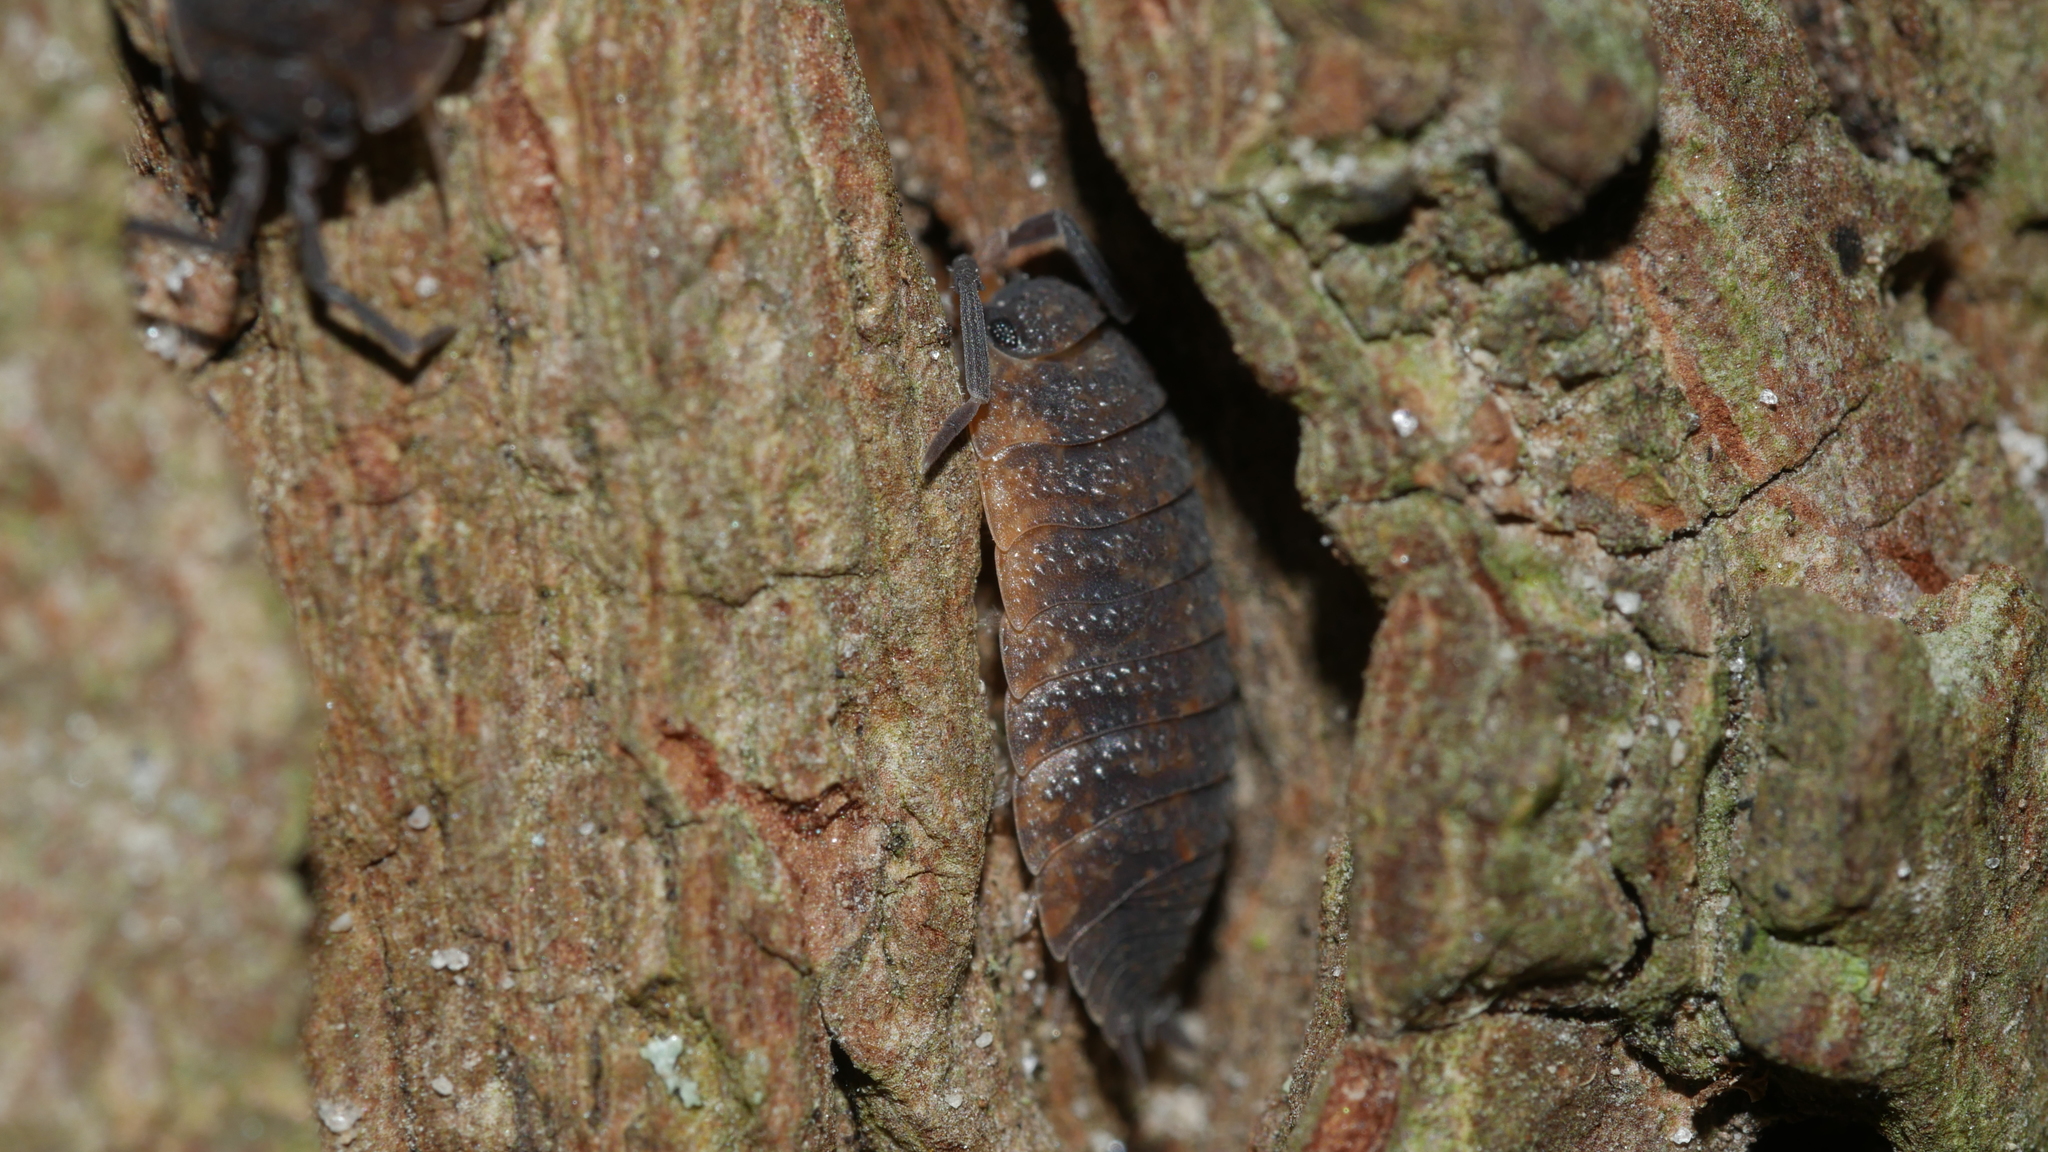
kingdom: Animalia
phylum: Arthropoda
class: Malacostraca
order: Isopoda
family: Porcellionidae
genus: Porcellio
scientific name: Porcellio scaber
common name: Common rough woodlouse
